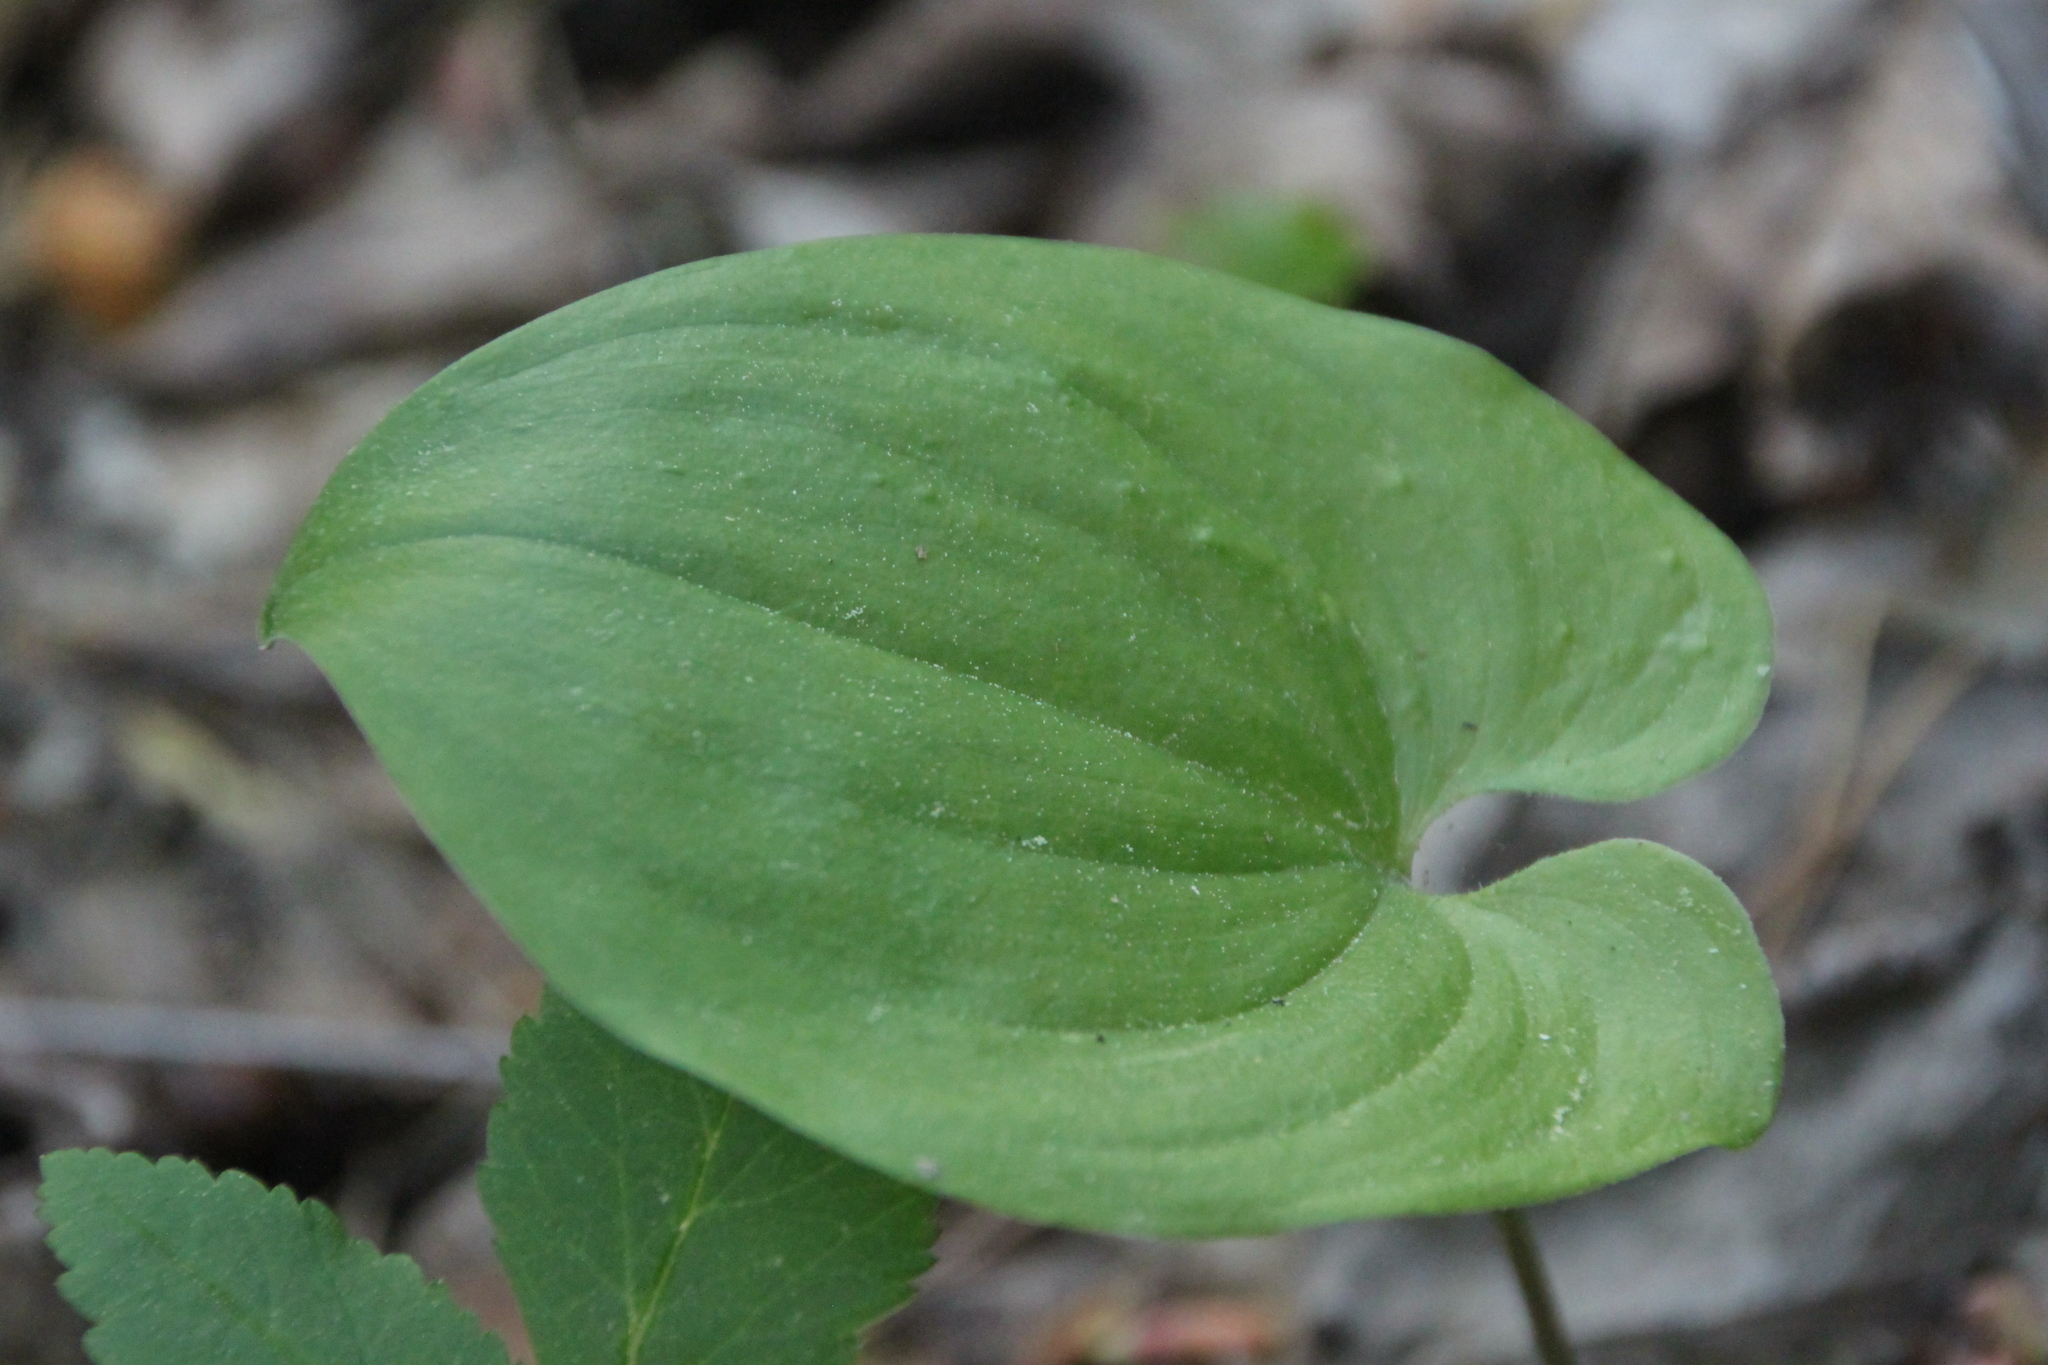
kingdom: Plantae
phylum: Tracheophyta
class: Liliopsida
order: Asparagales
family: Asparagaceae
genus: Maianthemum
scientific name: Maianthemum bifolium
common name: May lily
